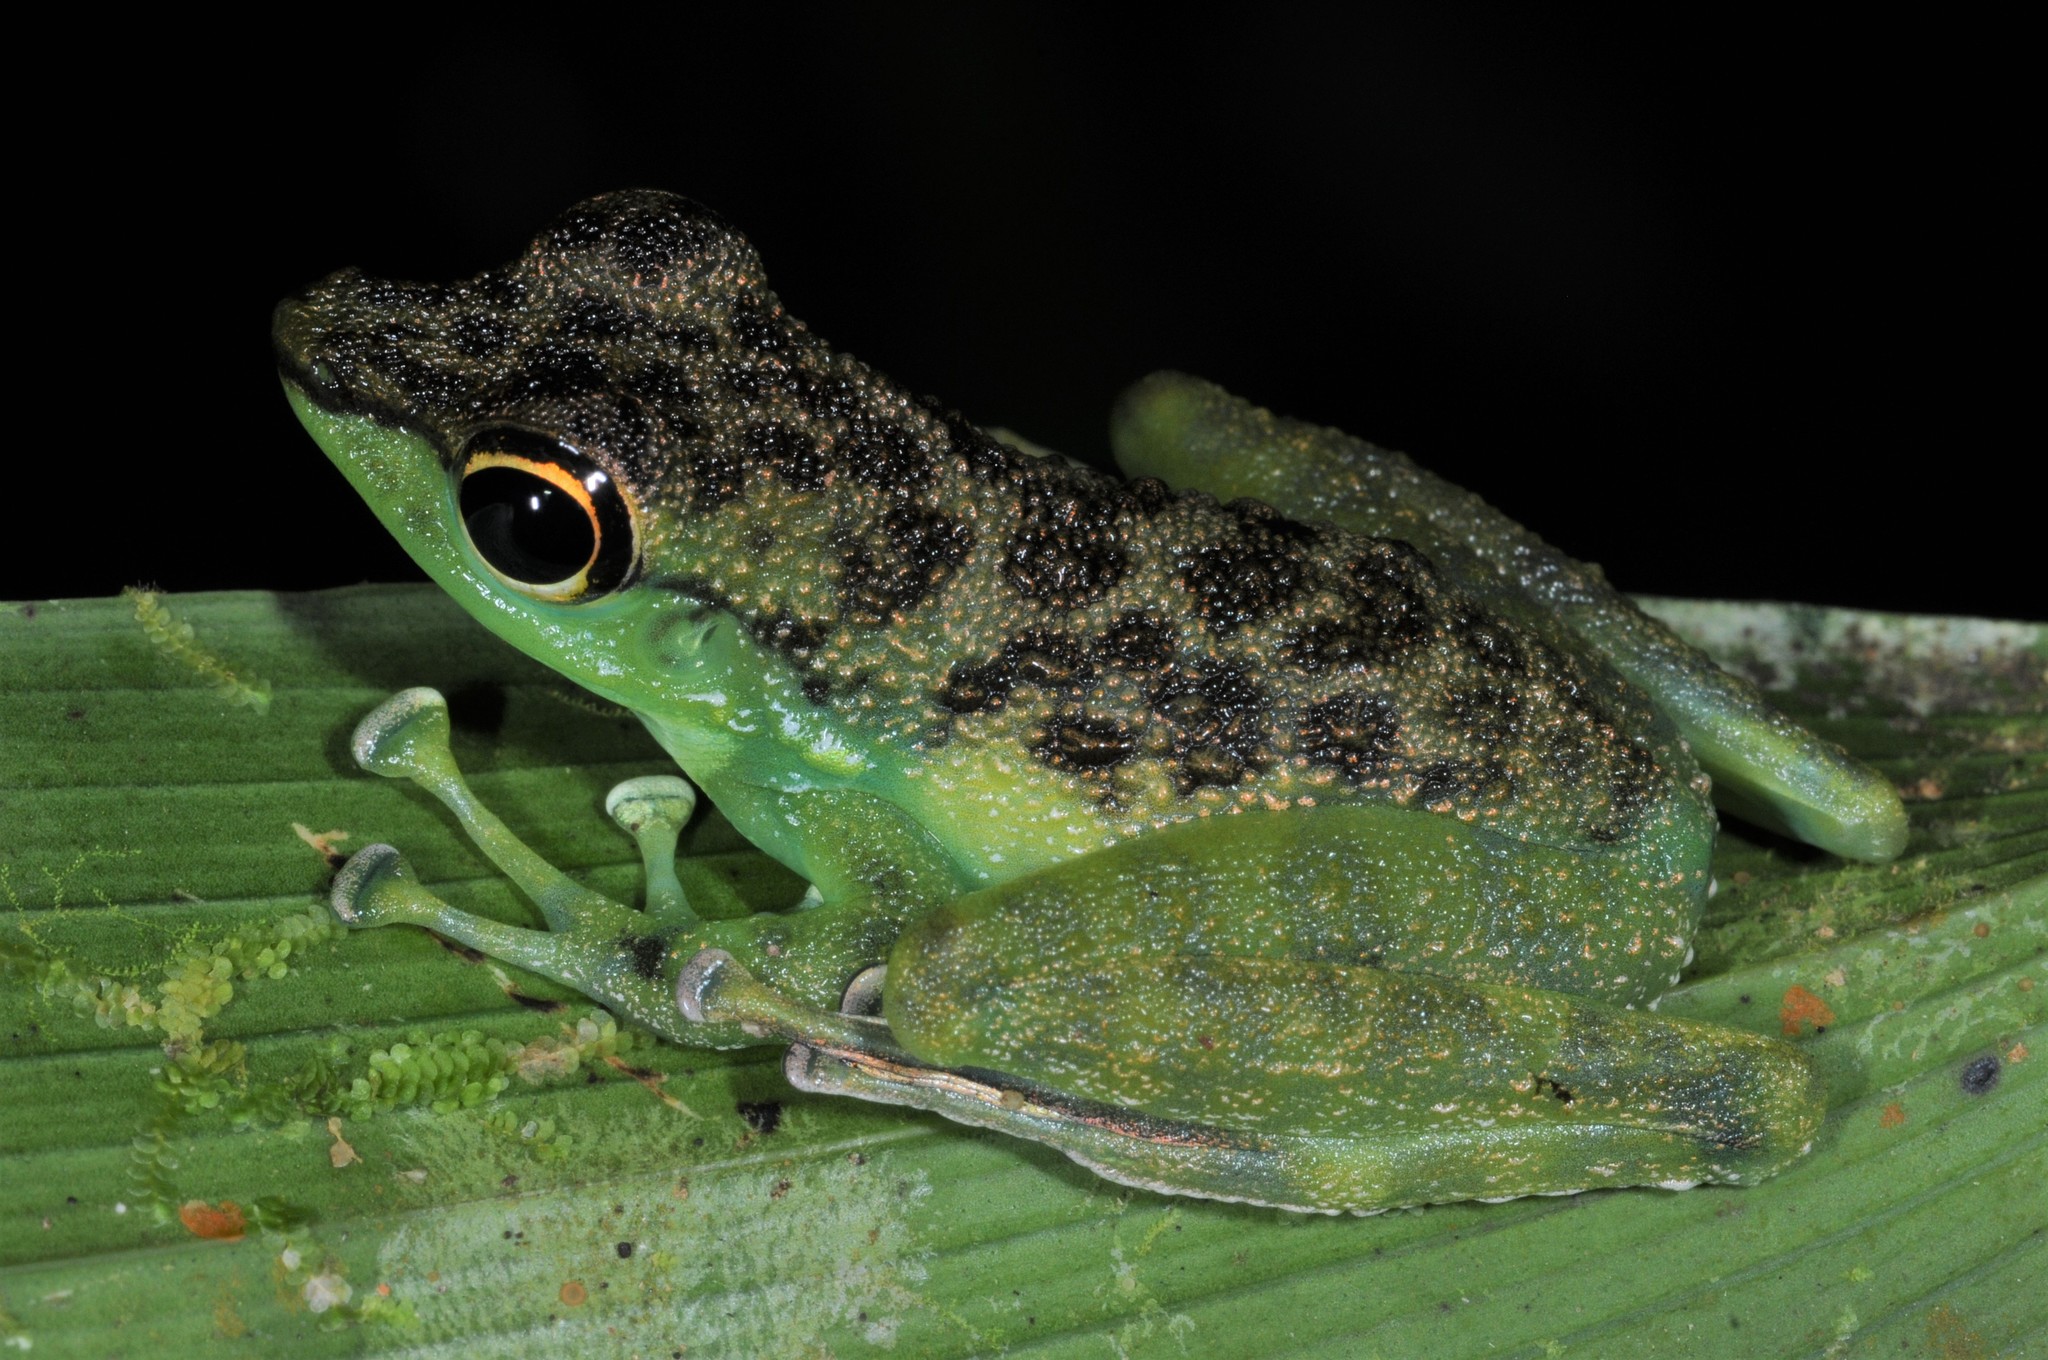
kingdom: Animalia
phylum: Chordata
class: Amphibia
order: Anura
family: Ranidae
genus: Staurois
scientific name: Staurois guttatus
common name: Black-spotted rock frog
